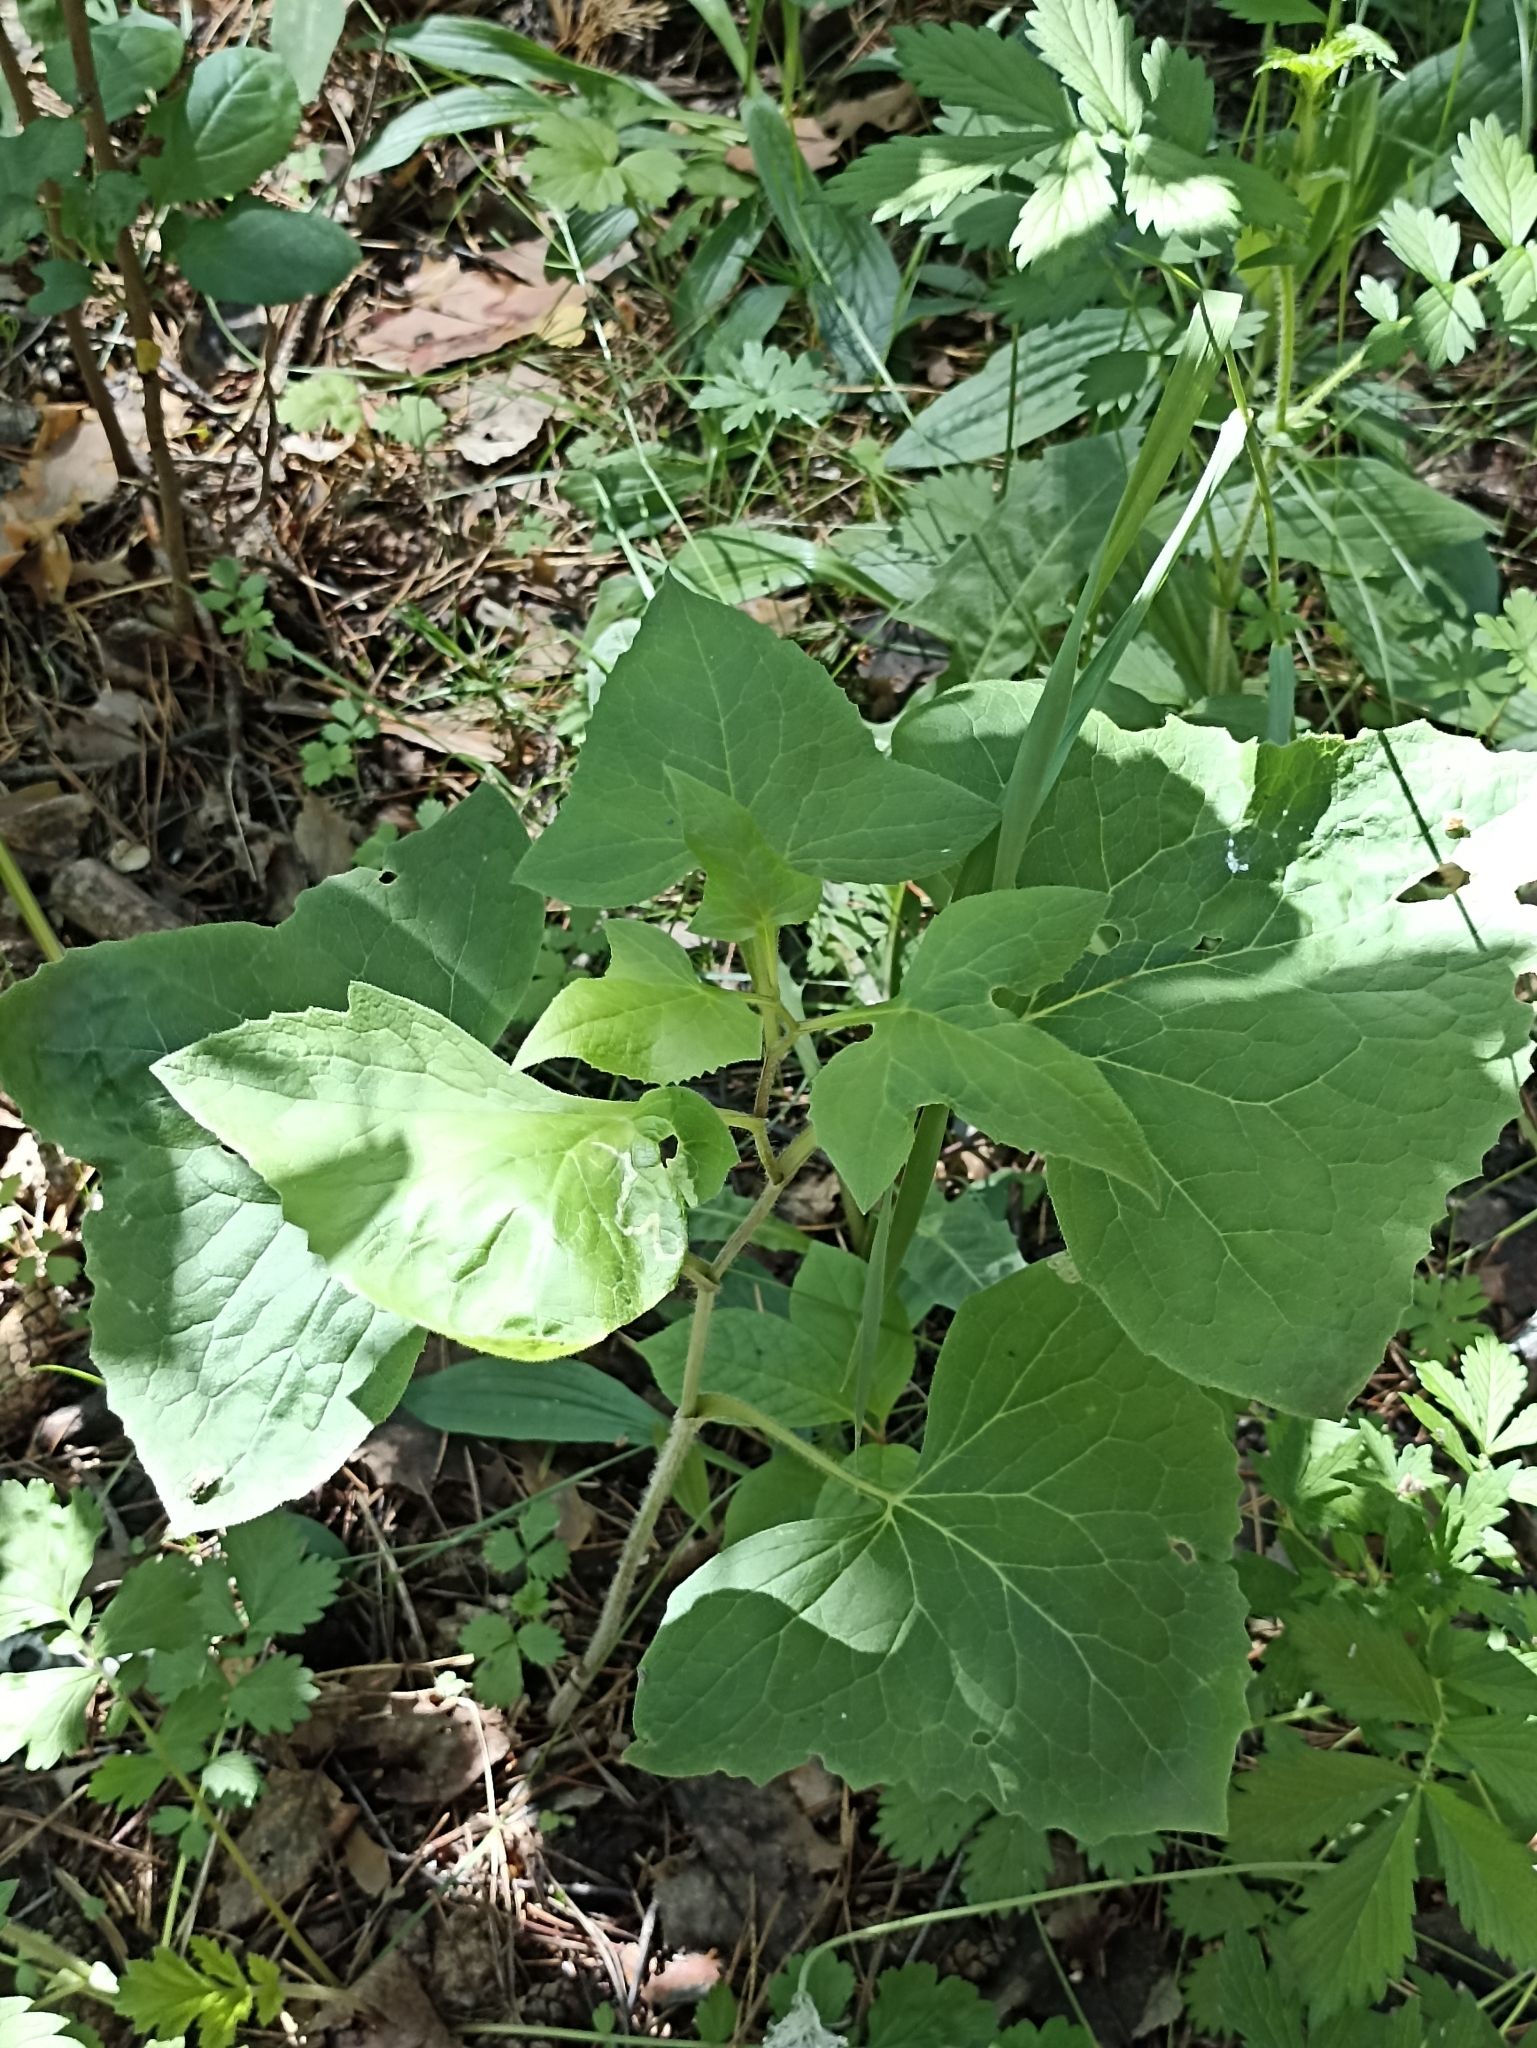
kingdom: Plantae
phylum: Tracheophyta
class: Magnoliopsida
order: Asterales
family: Asteraceae
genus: Parasenecio
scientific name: Parasenecio hastatus
